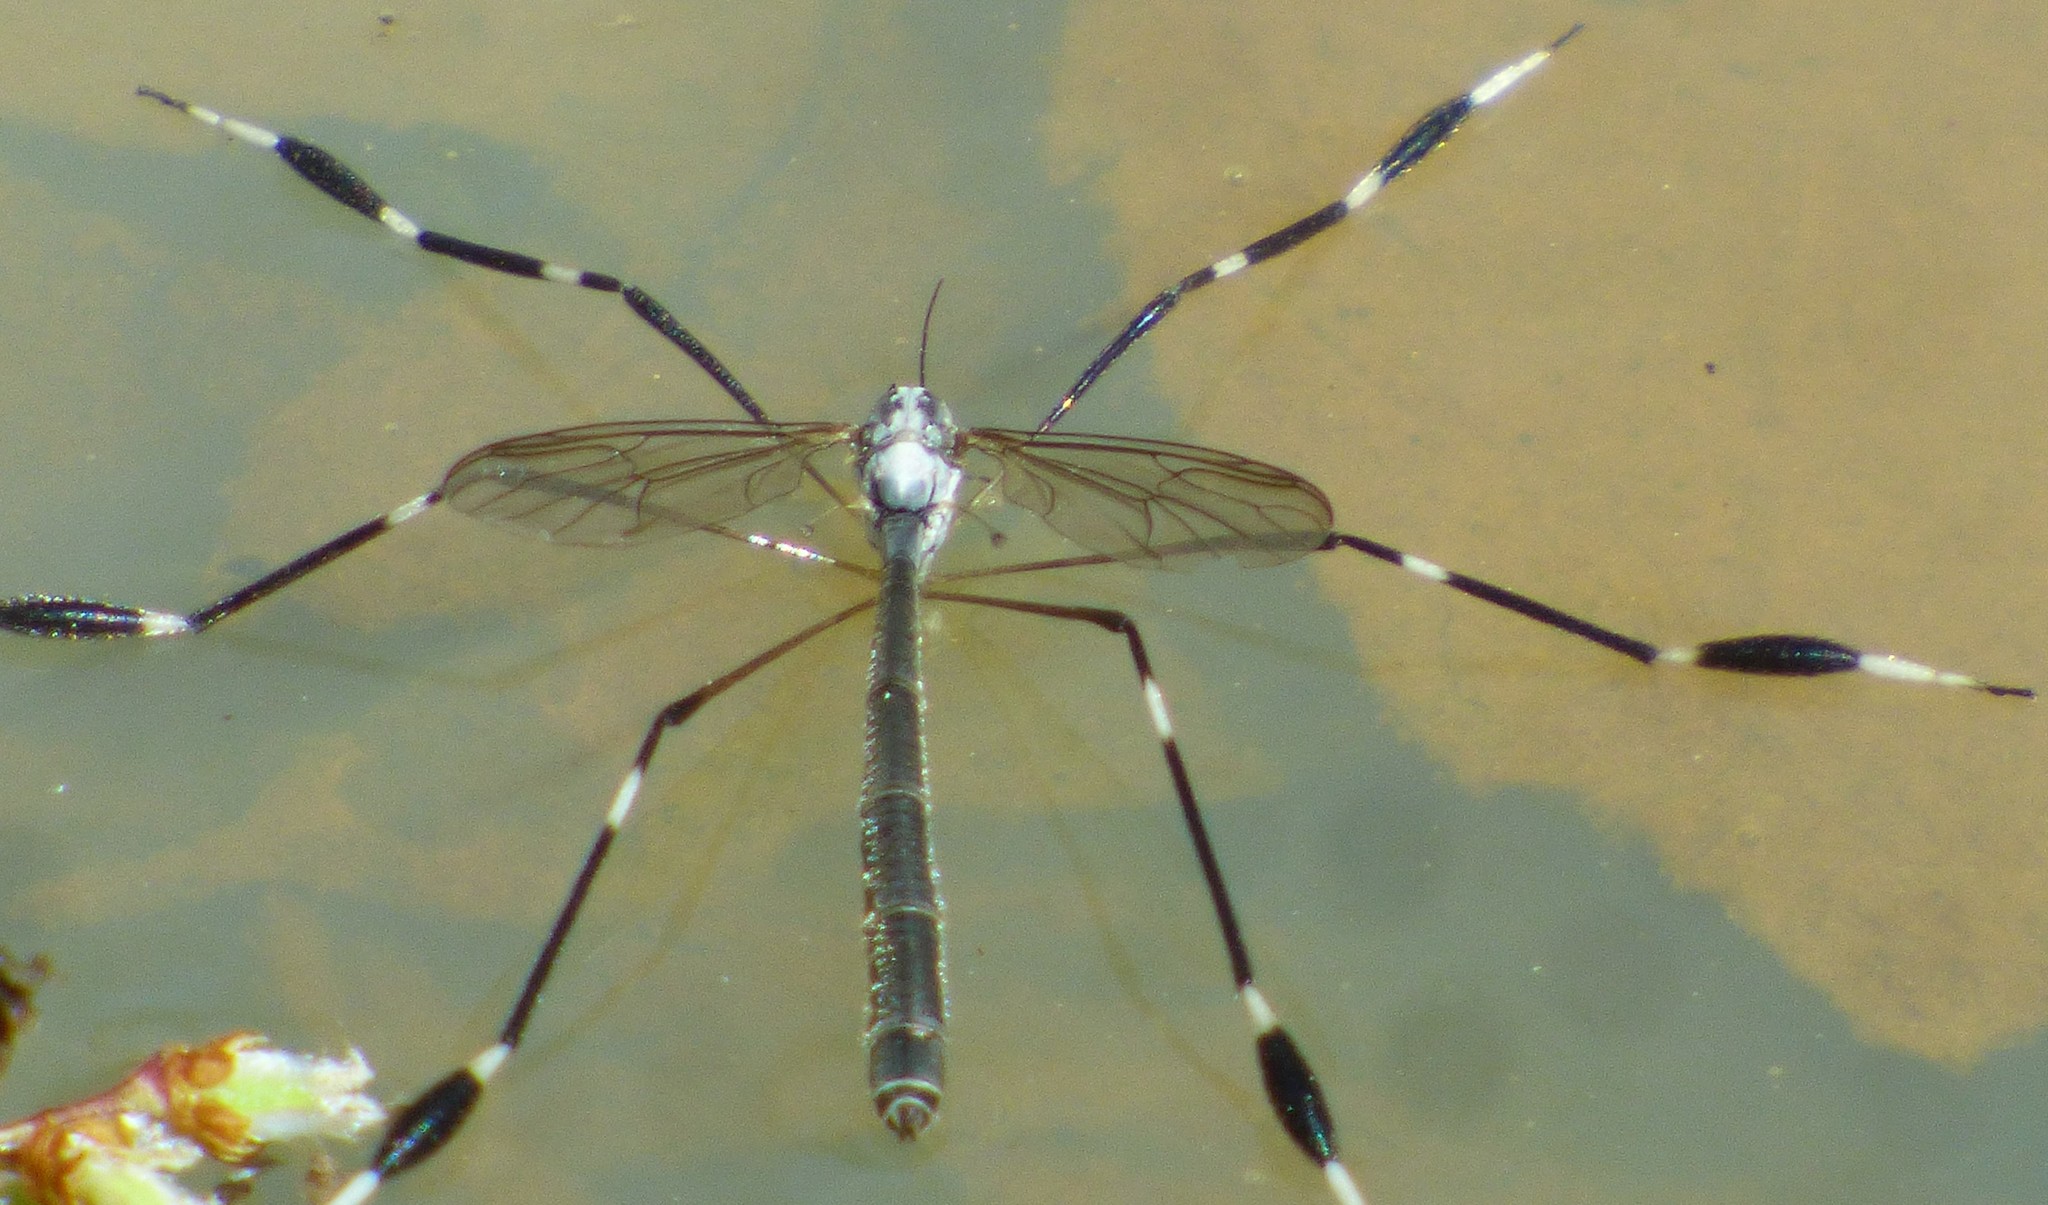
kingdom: Animalia
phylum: Arthropoda
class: Insecta
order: Diptera
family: Ptychopteridae
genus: Bittacomorpha
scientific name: Bittacomorpha clavipes
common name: Eastern phantom crane fly
